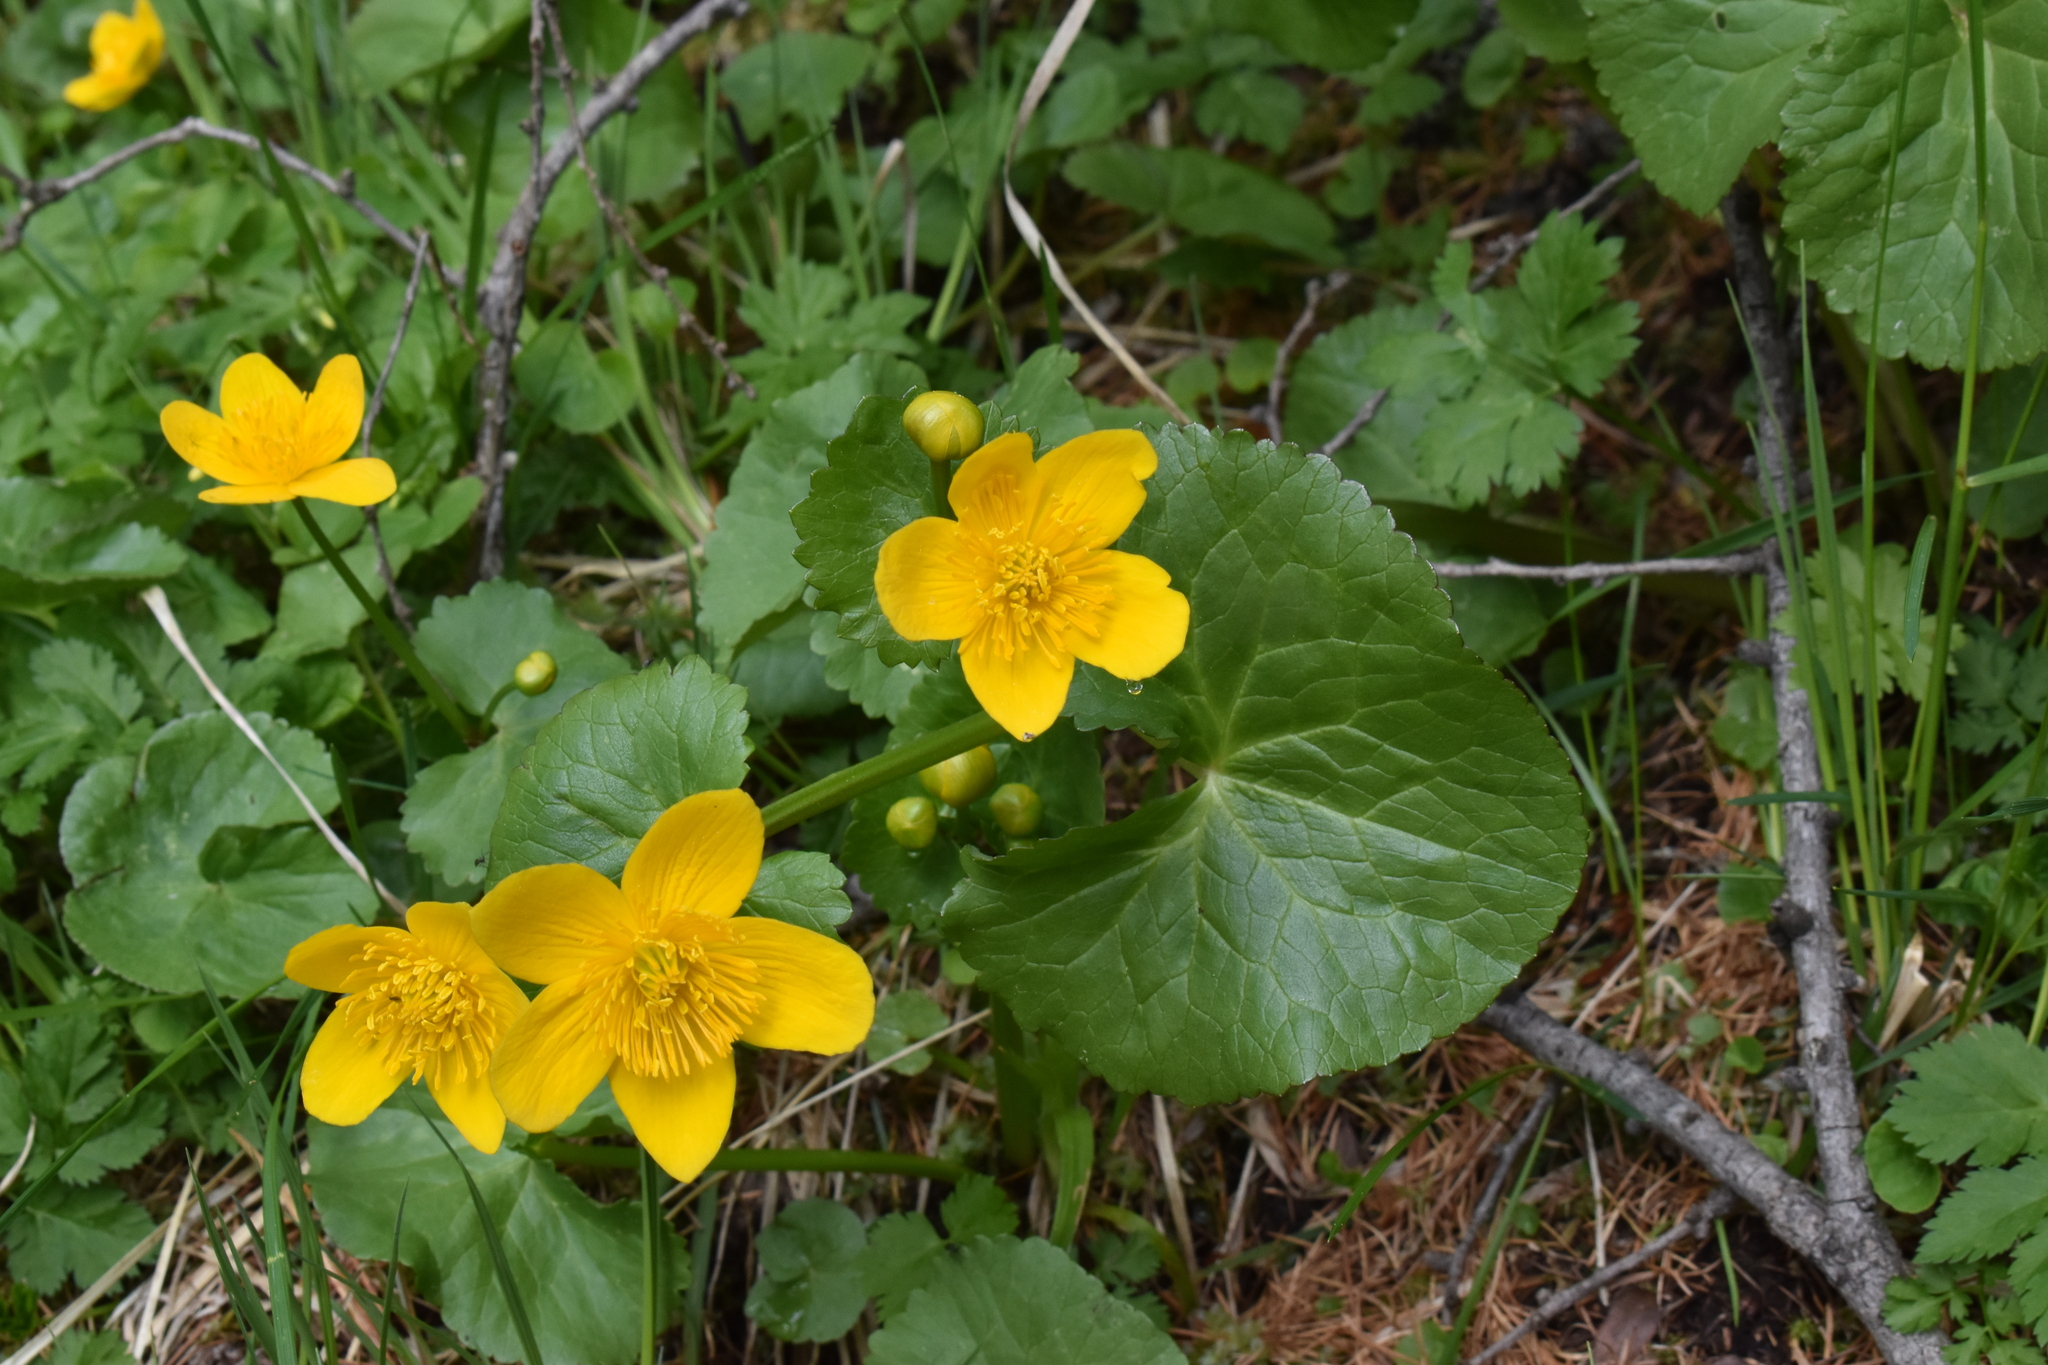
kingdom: Plantae
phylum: Tracheophyta
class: Magnoliopsida
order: Ranunculales
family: Ranunculaceae
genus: Caltha
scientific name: Caltha palustris
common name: Marsh marigold
